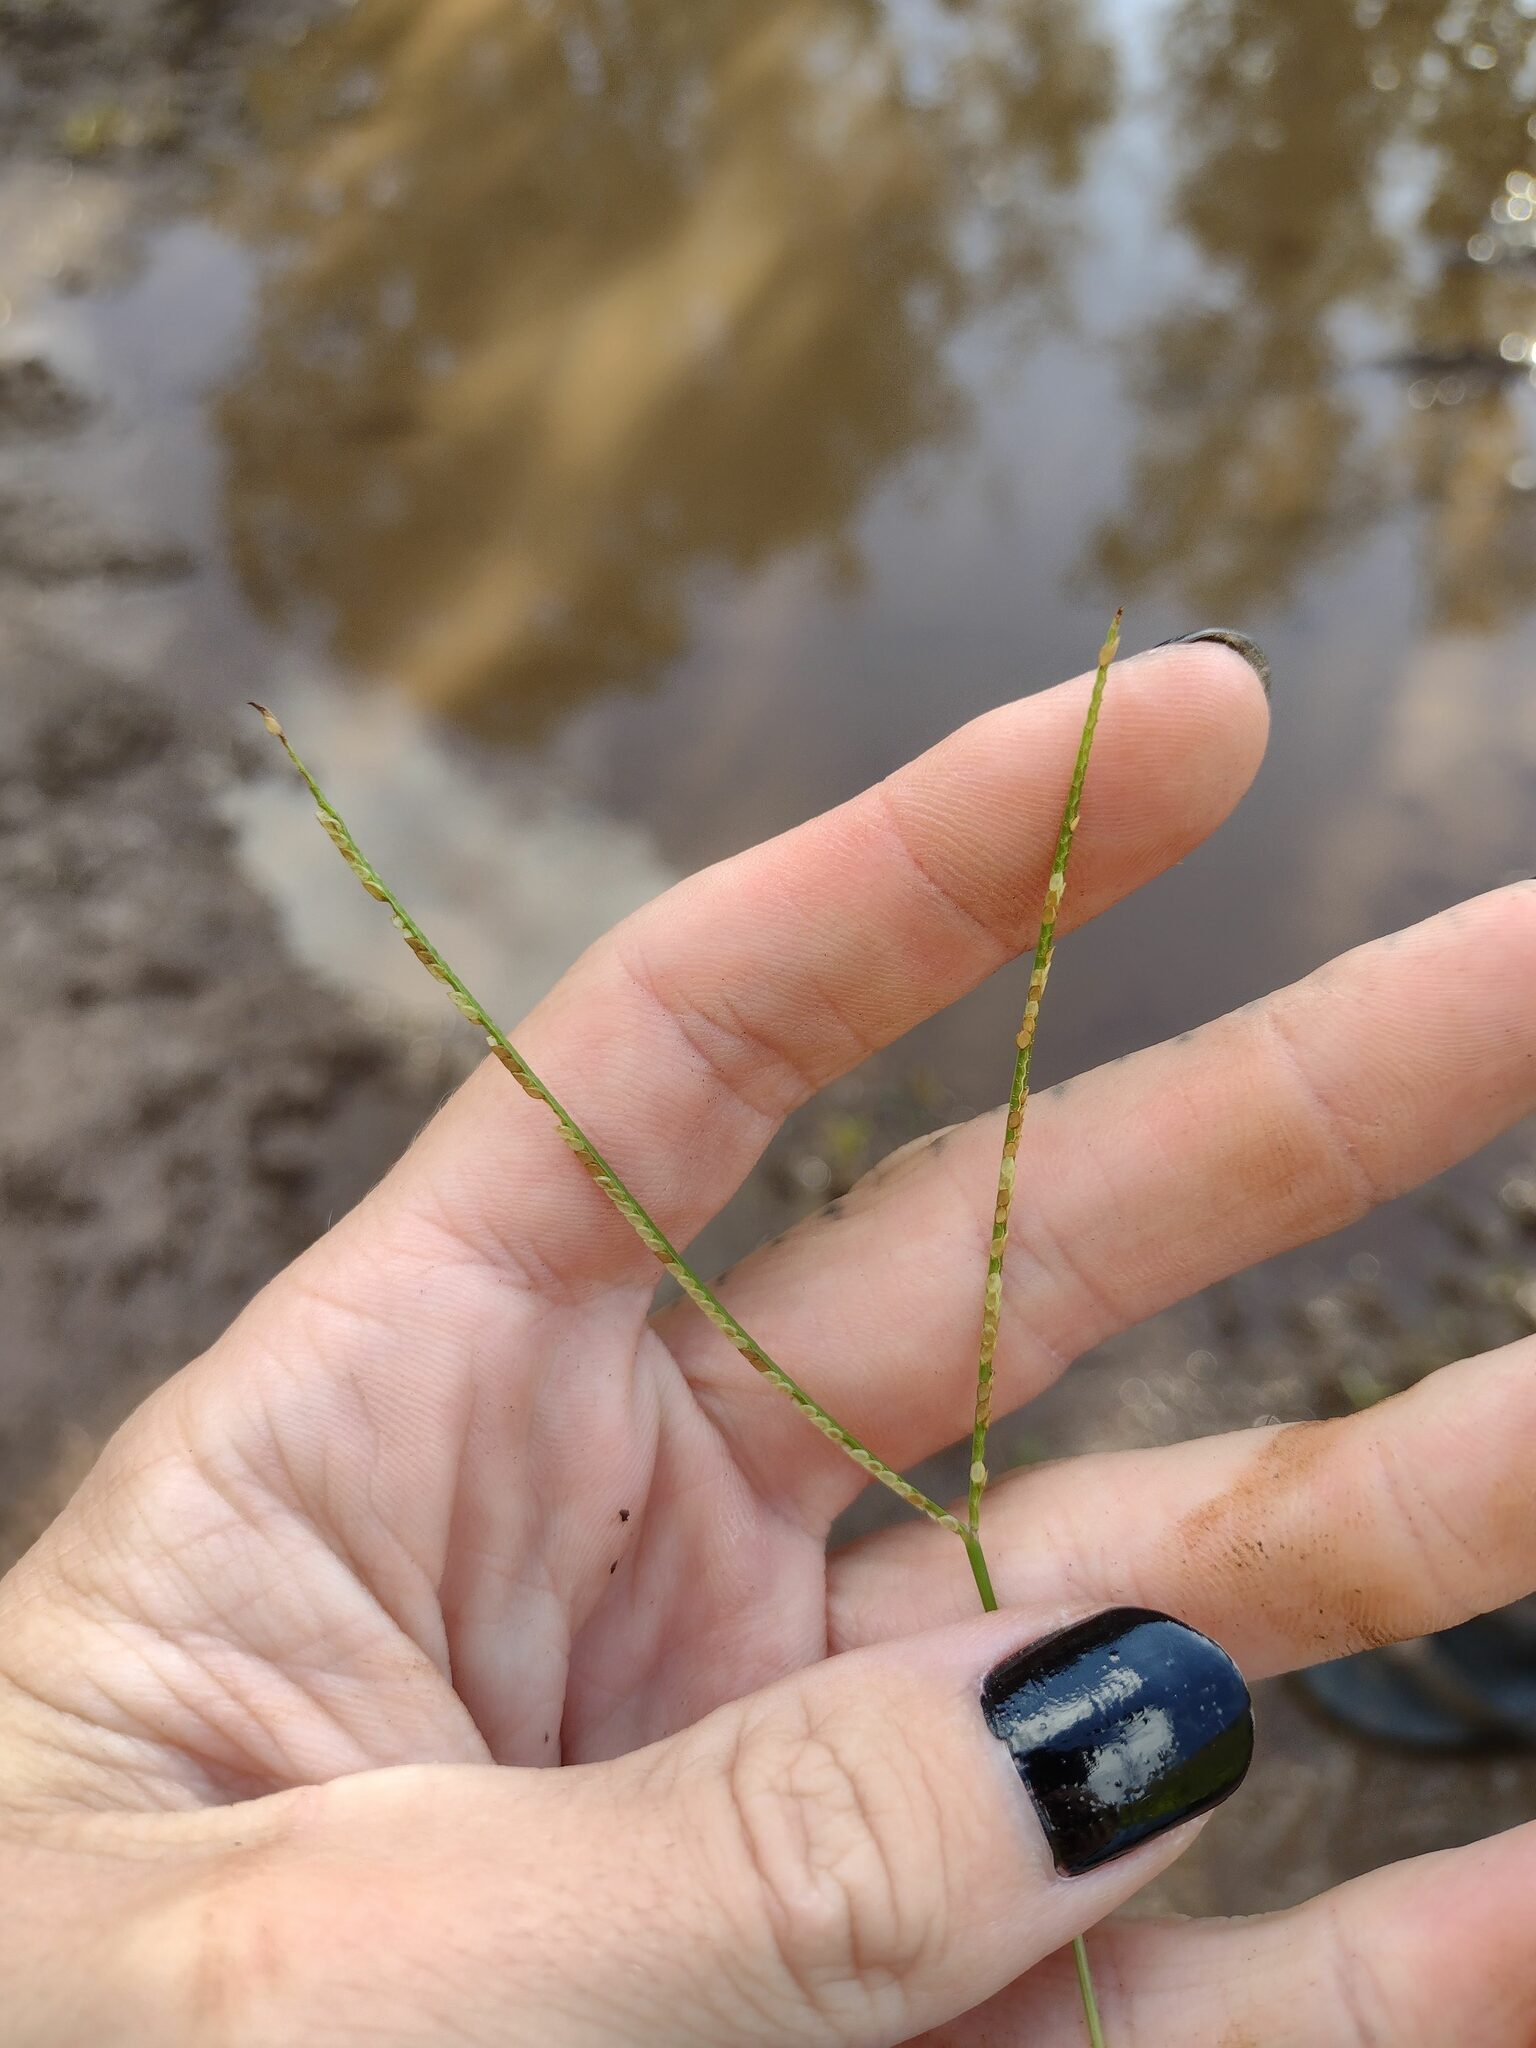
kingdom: Plantae
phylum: Tracheophyta
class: Liliopsida
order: Poales
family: Poaceae
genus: Paspalum
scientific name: Paspalum conjugatum
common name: Hilograss
